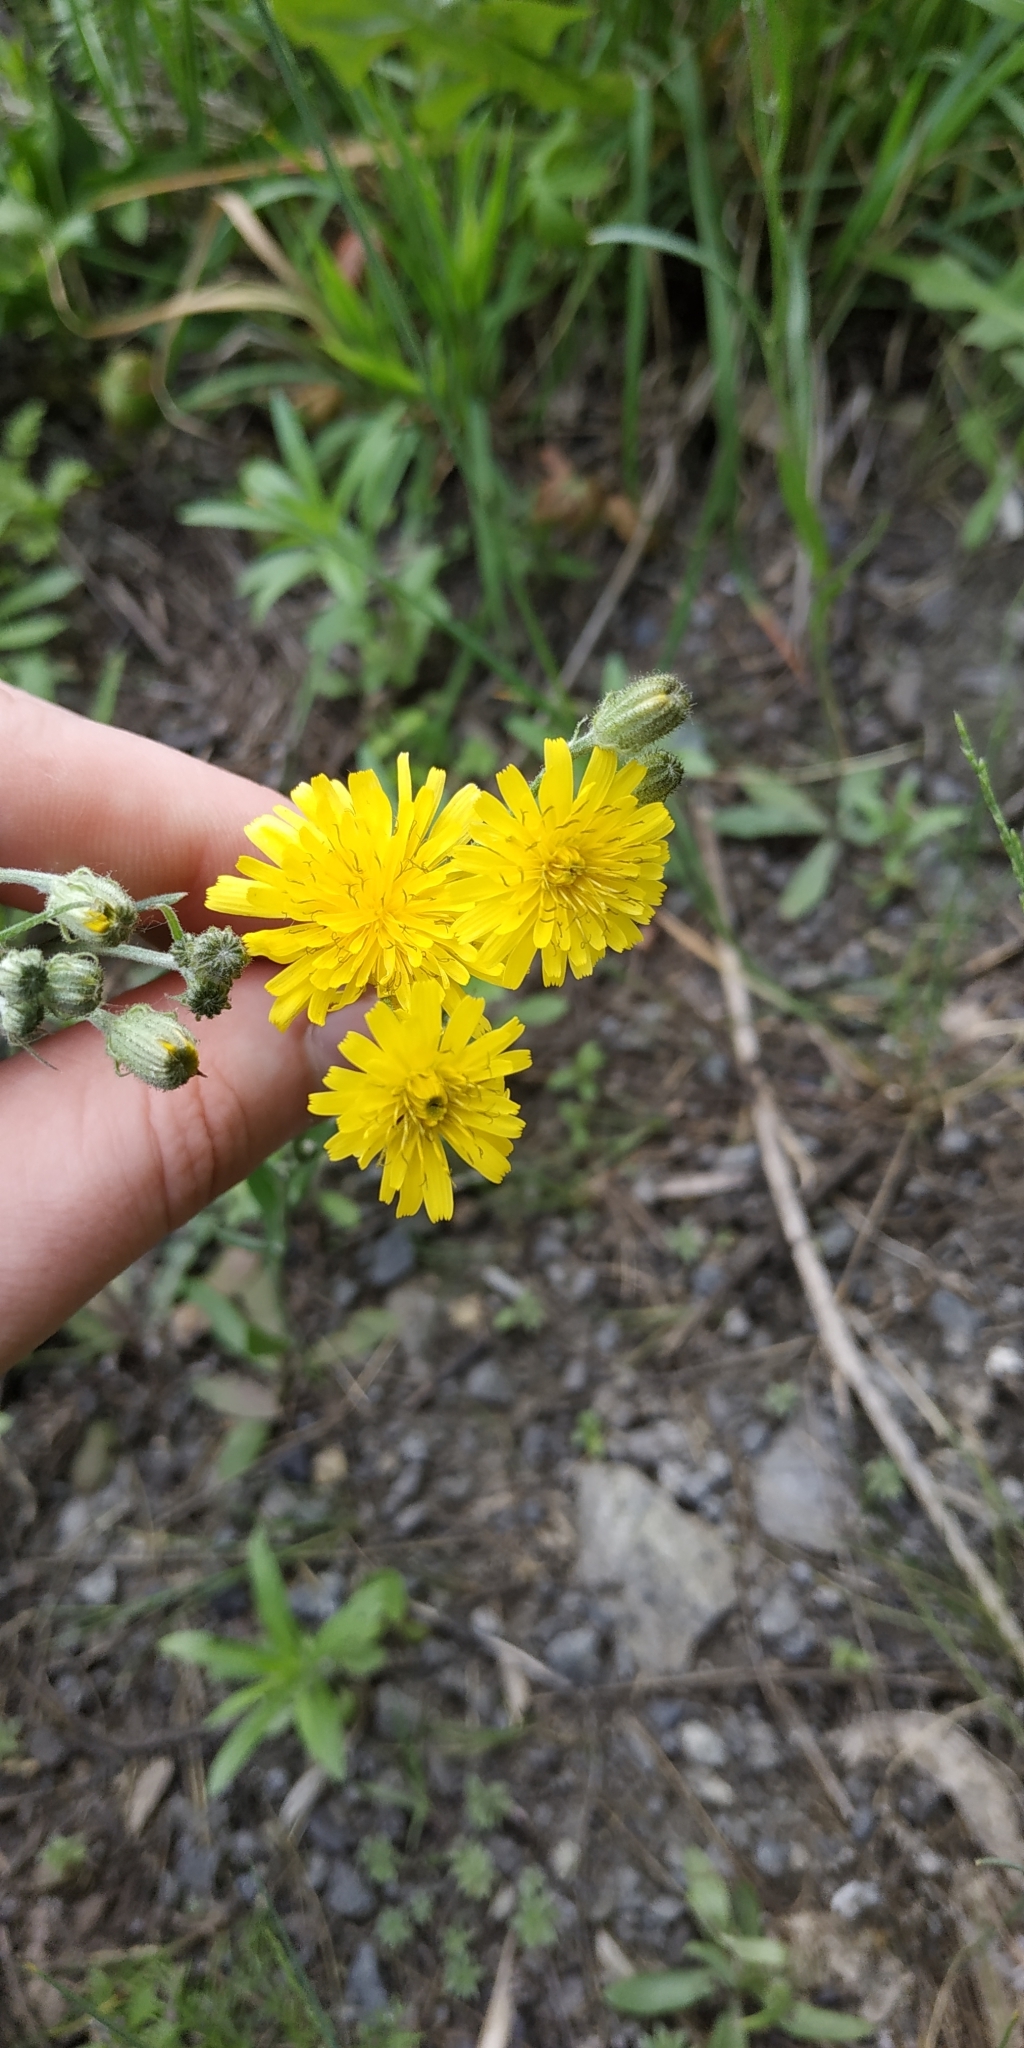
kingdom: Plantae
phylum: Tracheophyta
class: Magnoliopsida
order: Asterales
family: Asteraceae
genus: Crepis
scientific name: Crepis tectorum
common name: Narrow-leaved hawk's-beard
